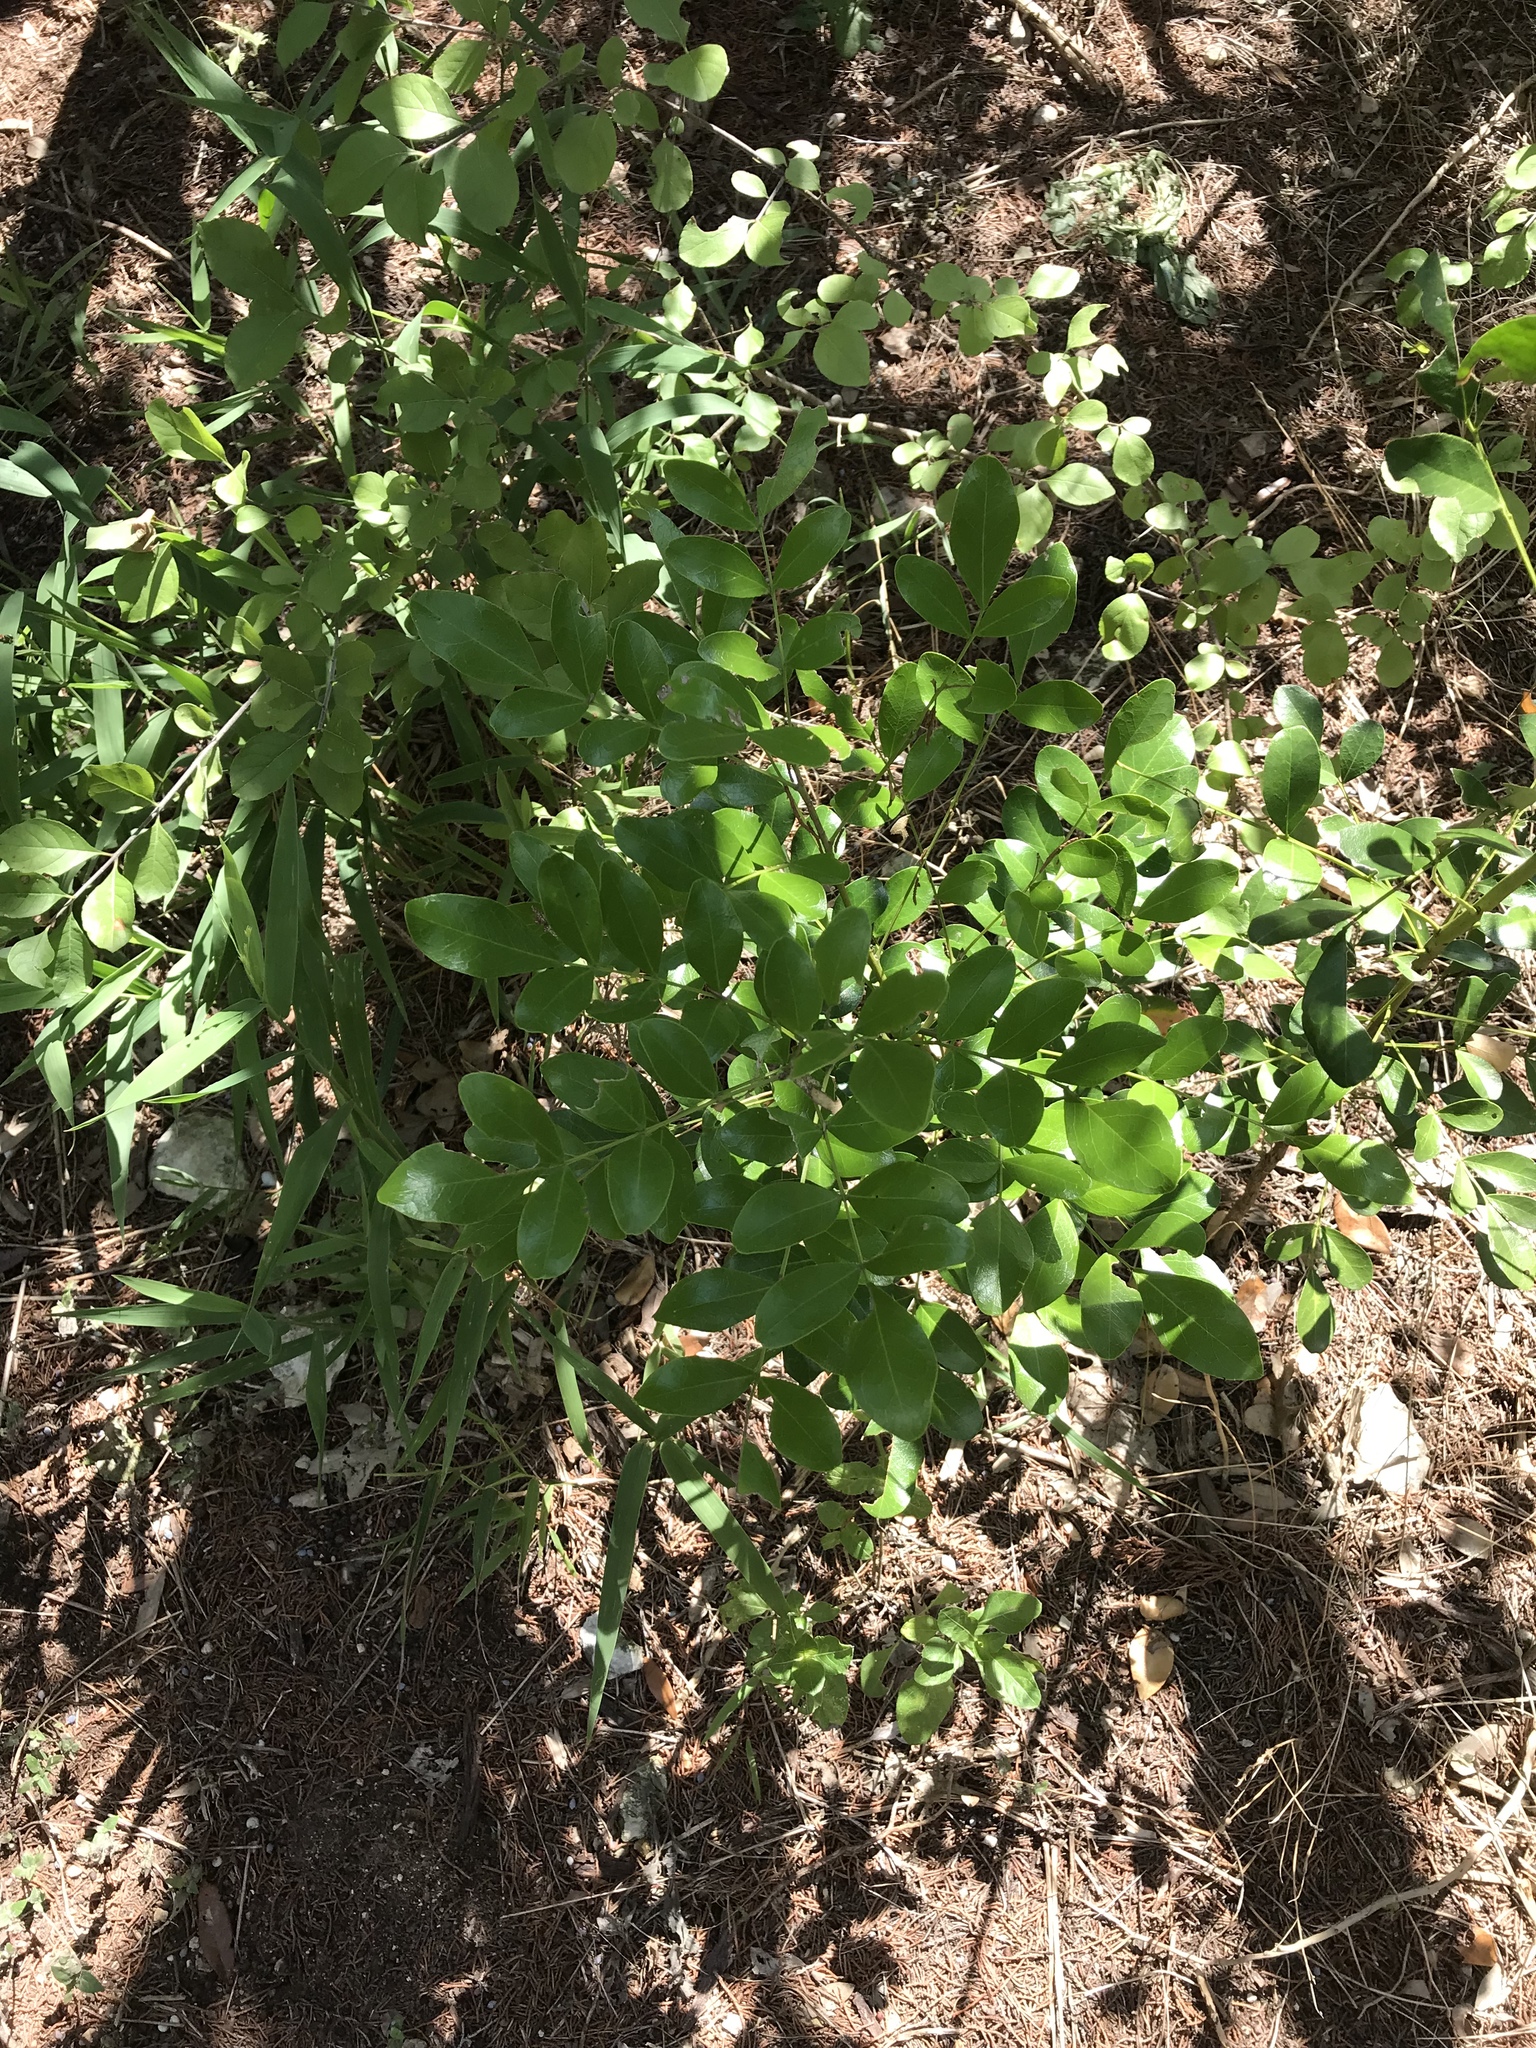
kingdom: Plantae
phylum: Tracheophyta
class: Magnoliopsida
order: Fabales
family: Fabaceae
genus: Dermatophyllum
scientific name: Dermatophyllum secundiflorum
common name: Texas-mountain-laurel
